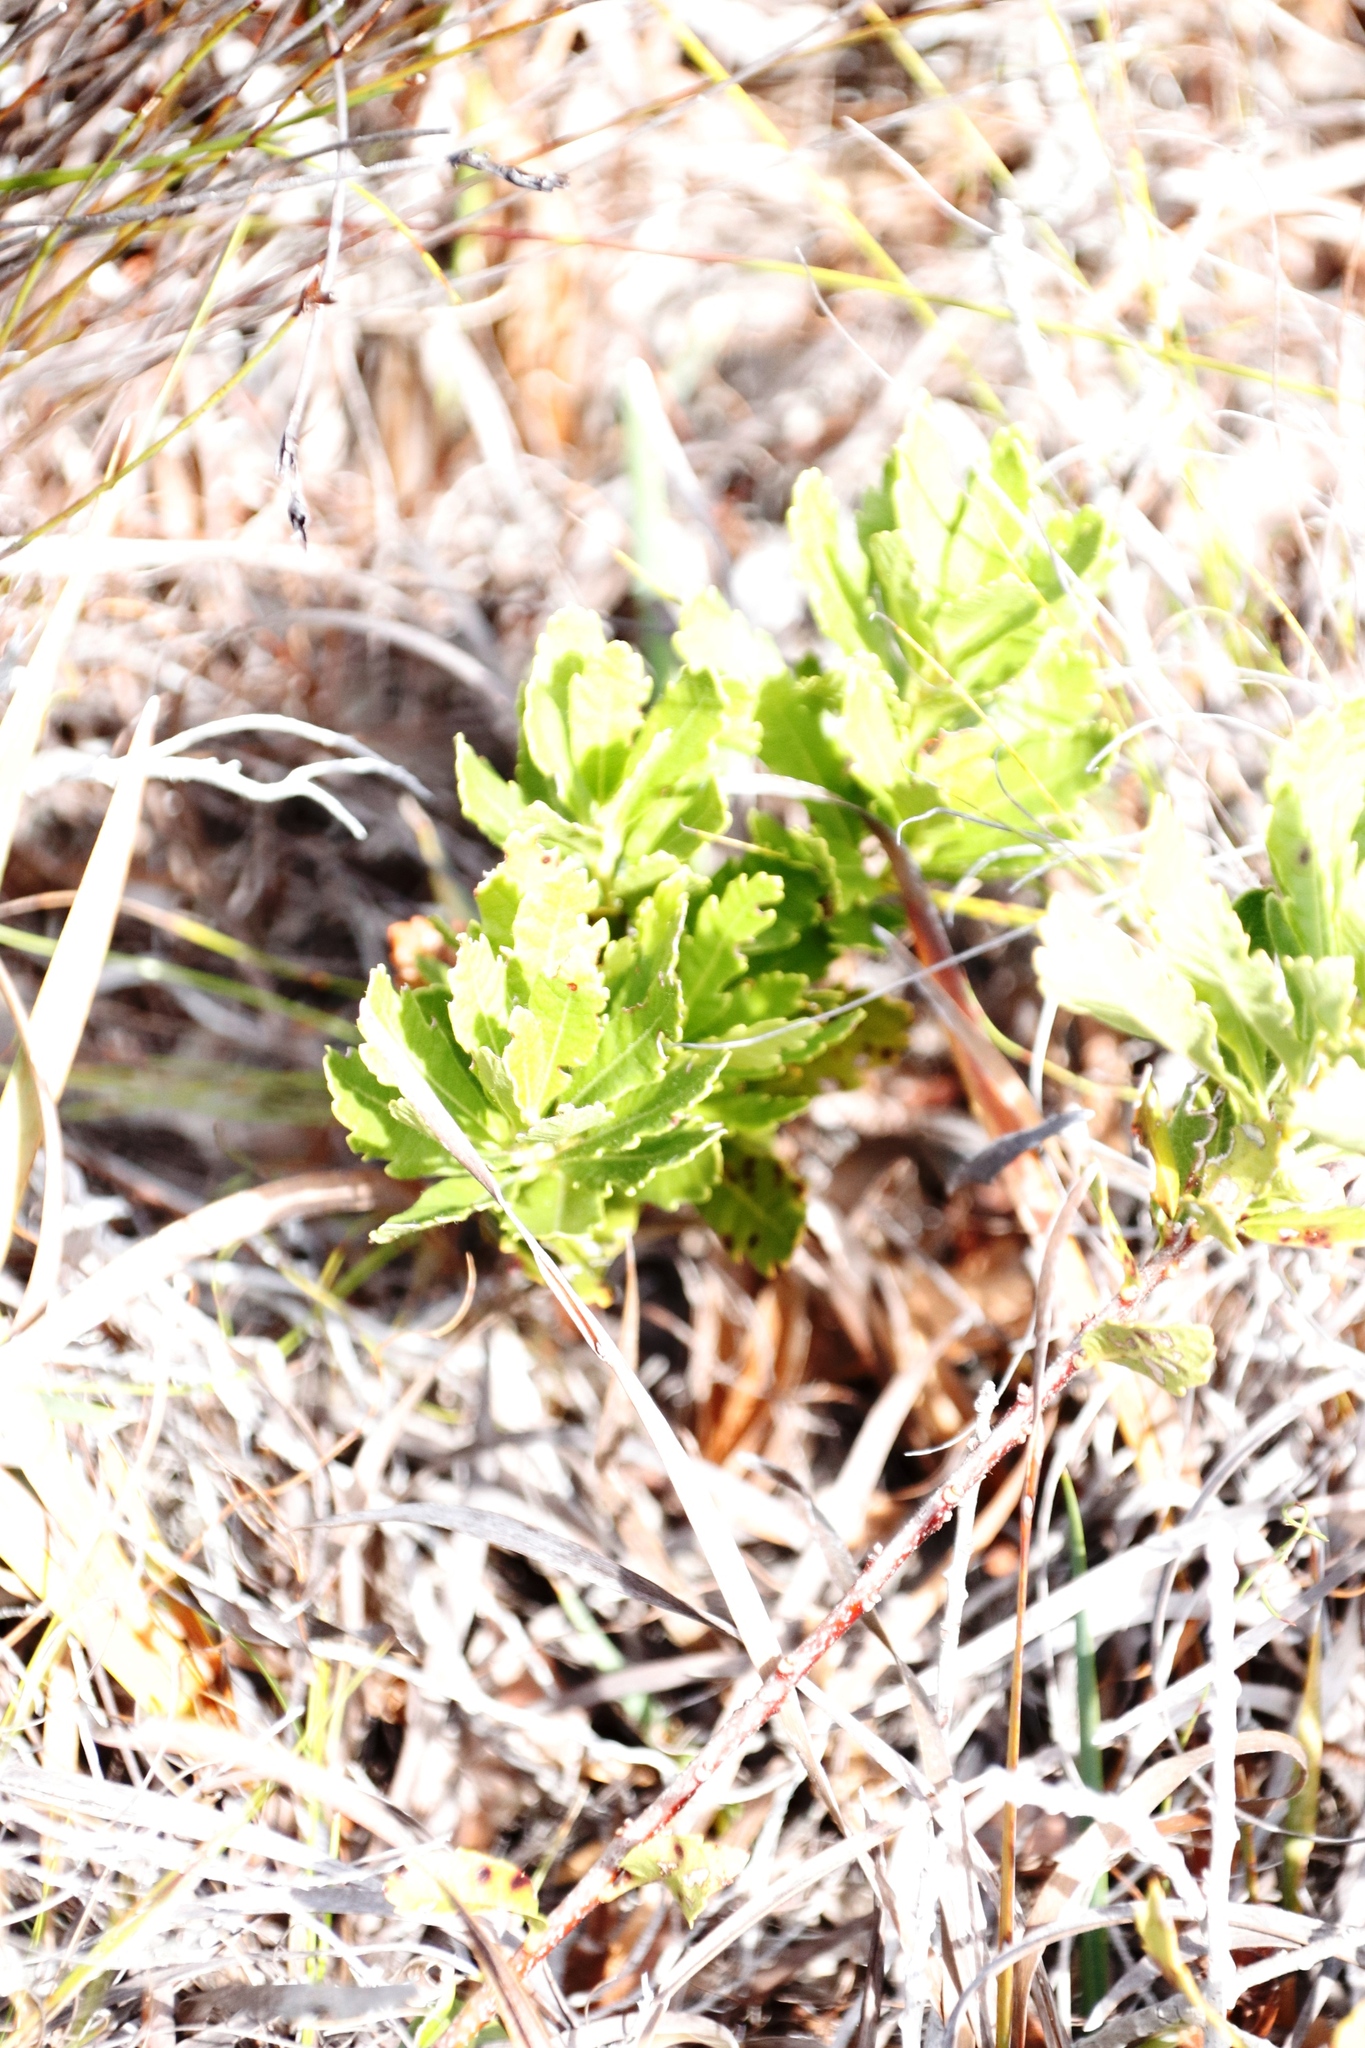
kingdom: Plantae
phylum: Tracheophyta
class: Magnoliopsida
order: Fagales
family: Myricaceae
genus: Morella
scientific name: Morella quercifolia
